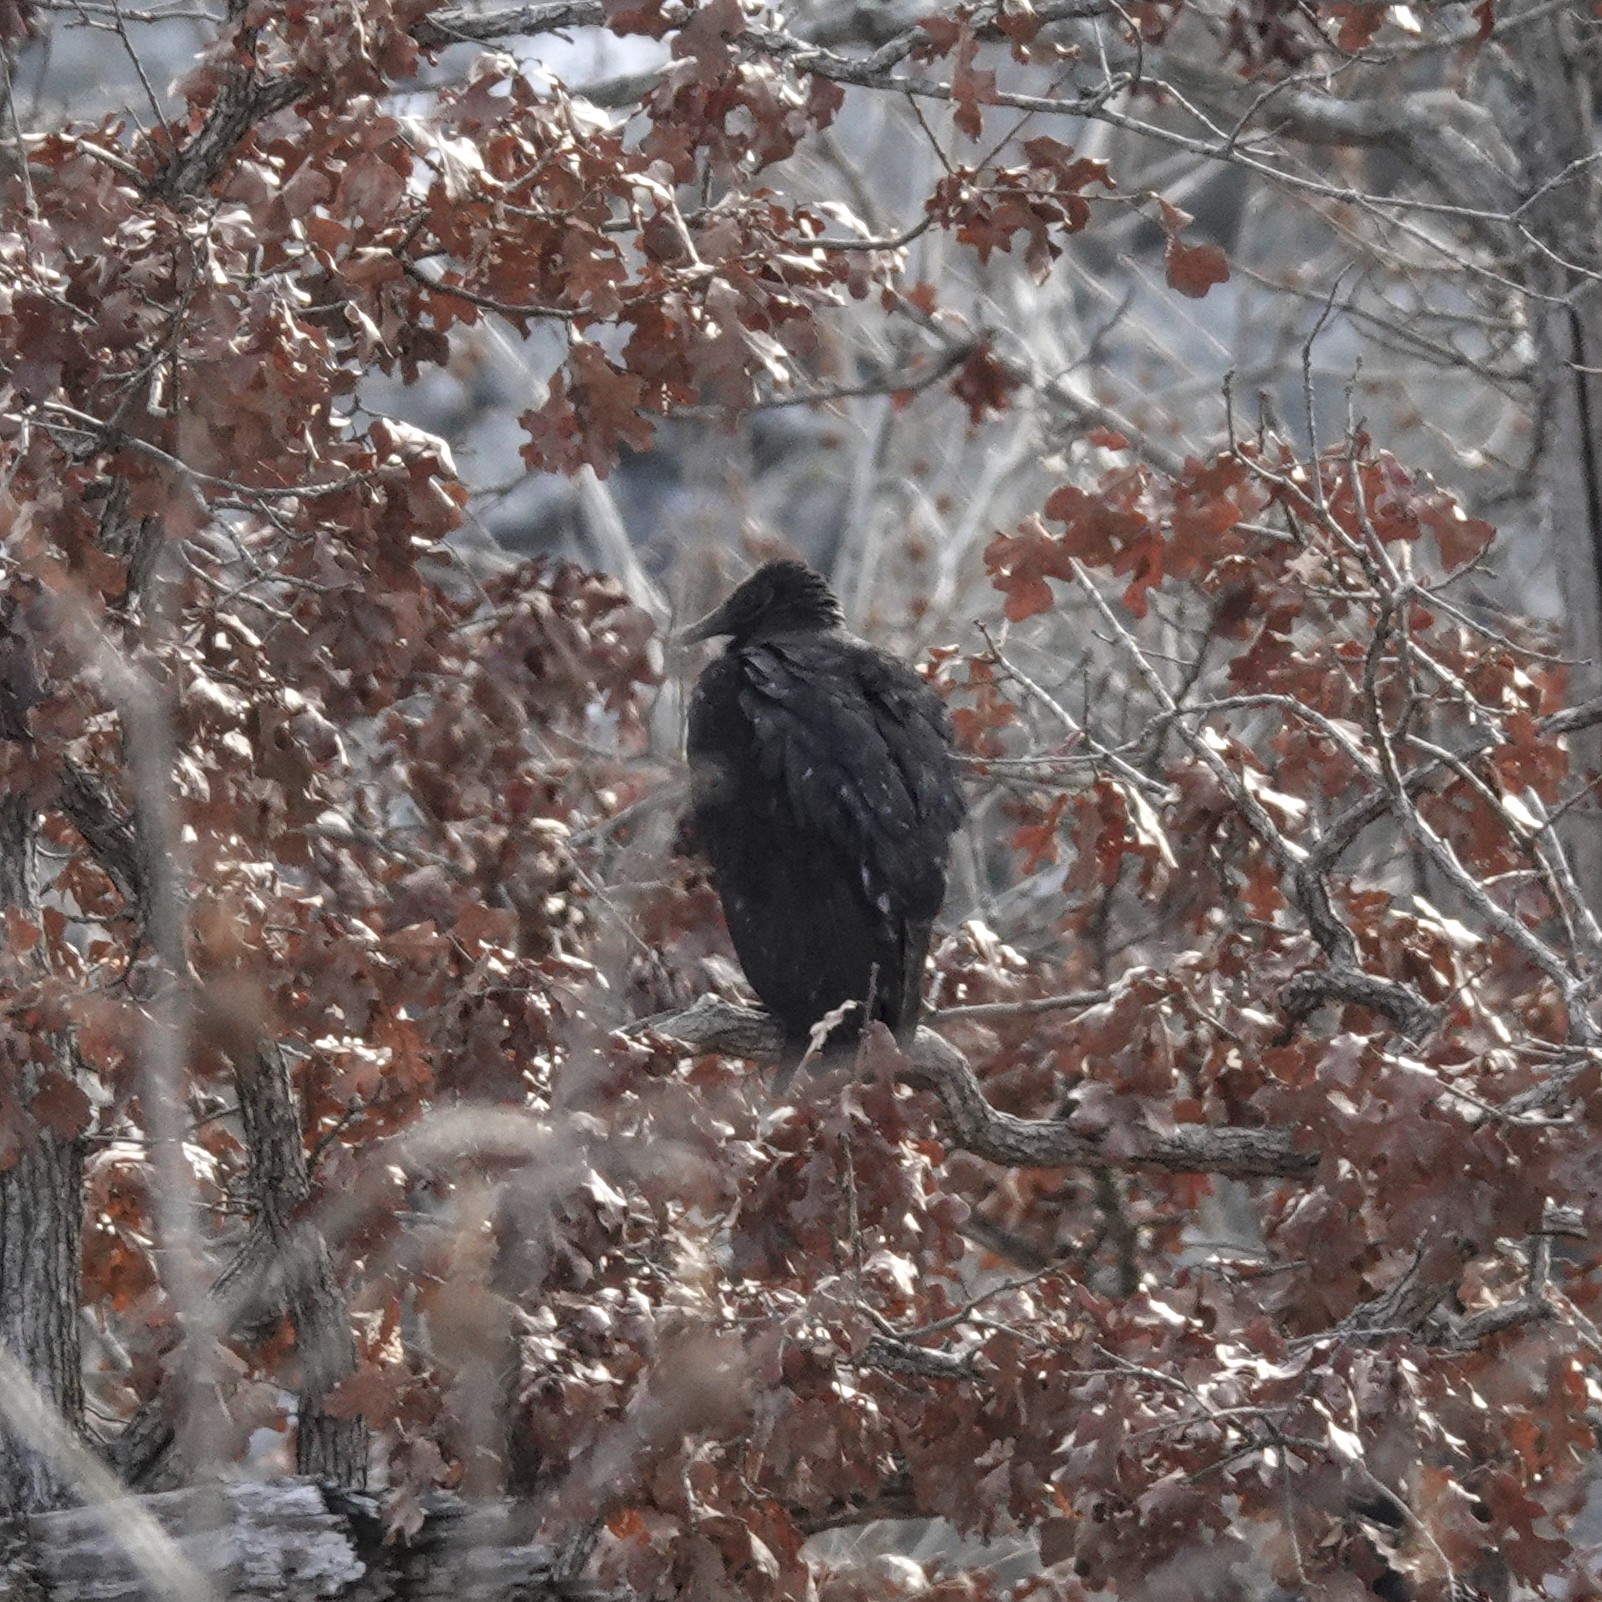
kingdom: Animalia
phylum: Chordata
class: Aves
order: Accipitriformes
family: Cathartidae
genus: Coragyps
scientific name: Coragyps atratus
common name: Black vulture
